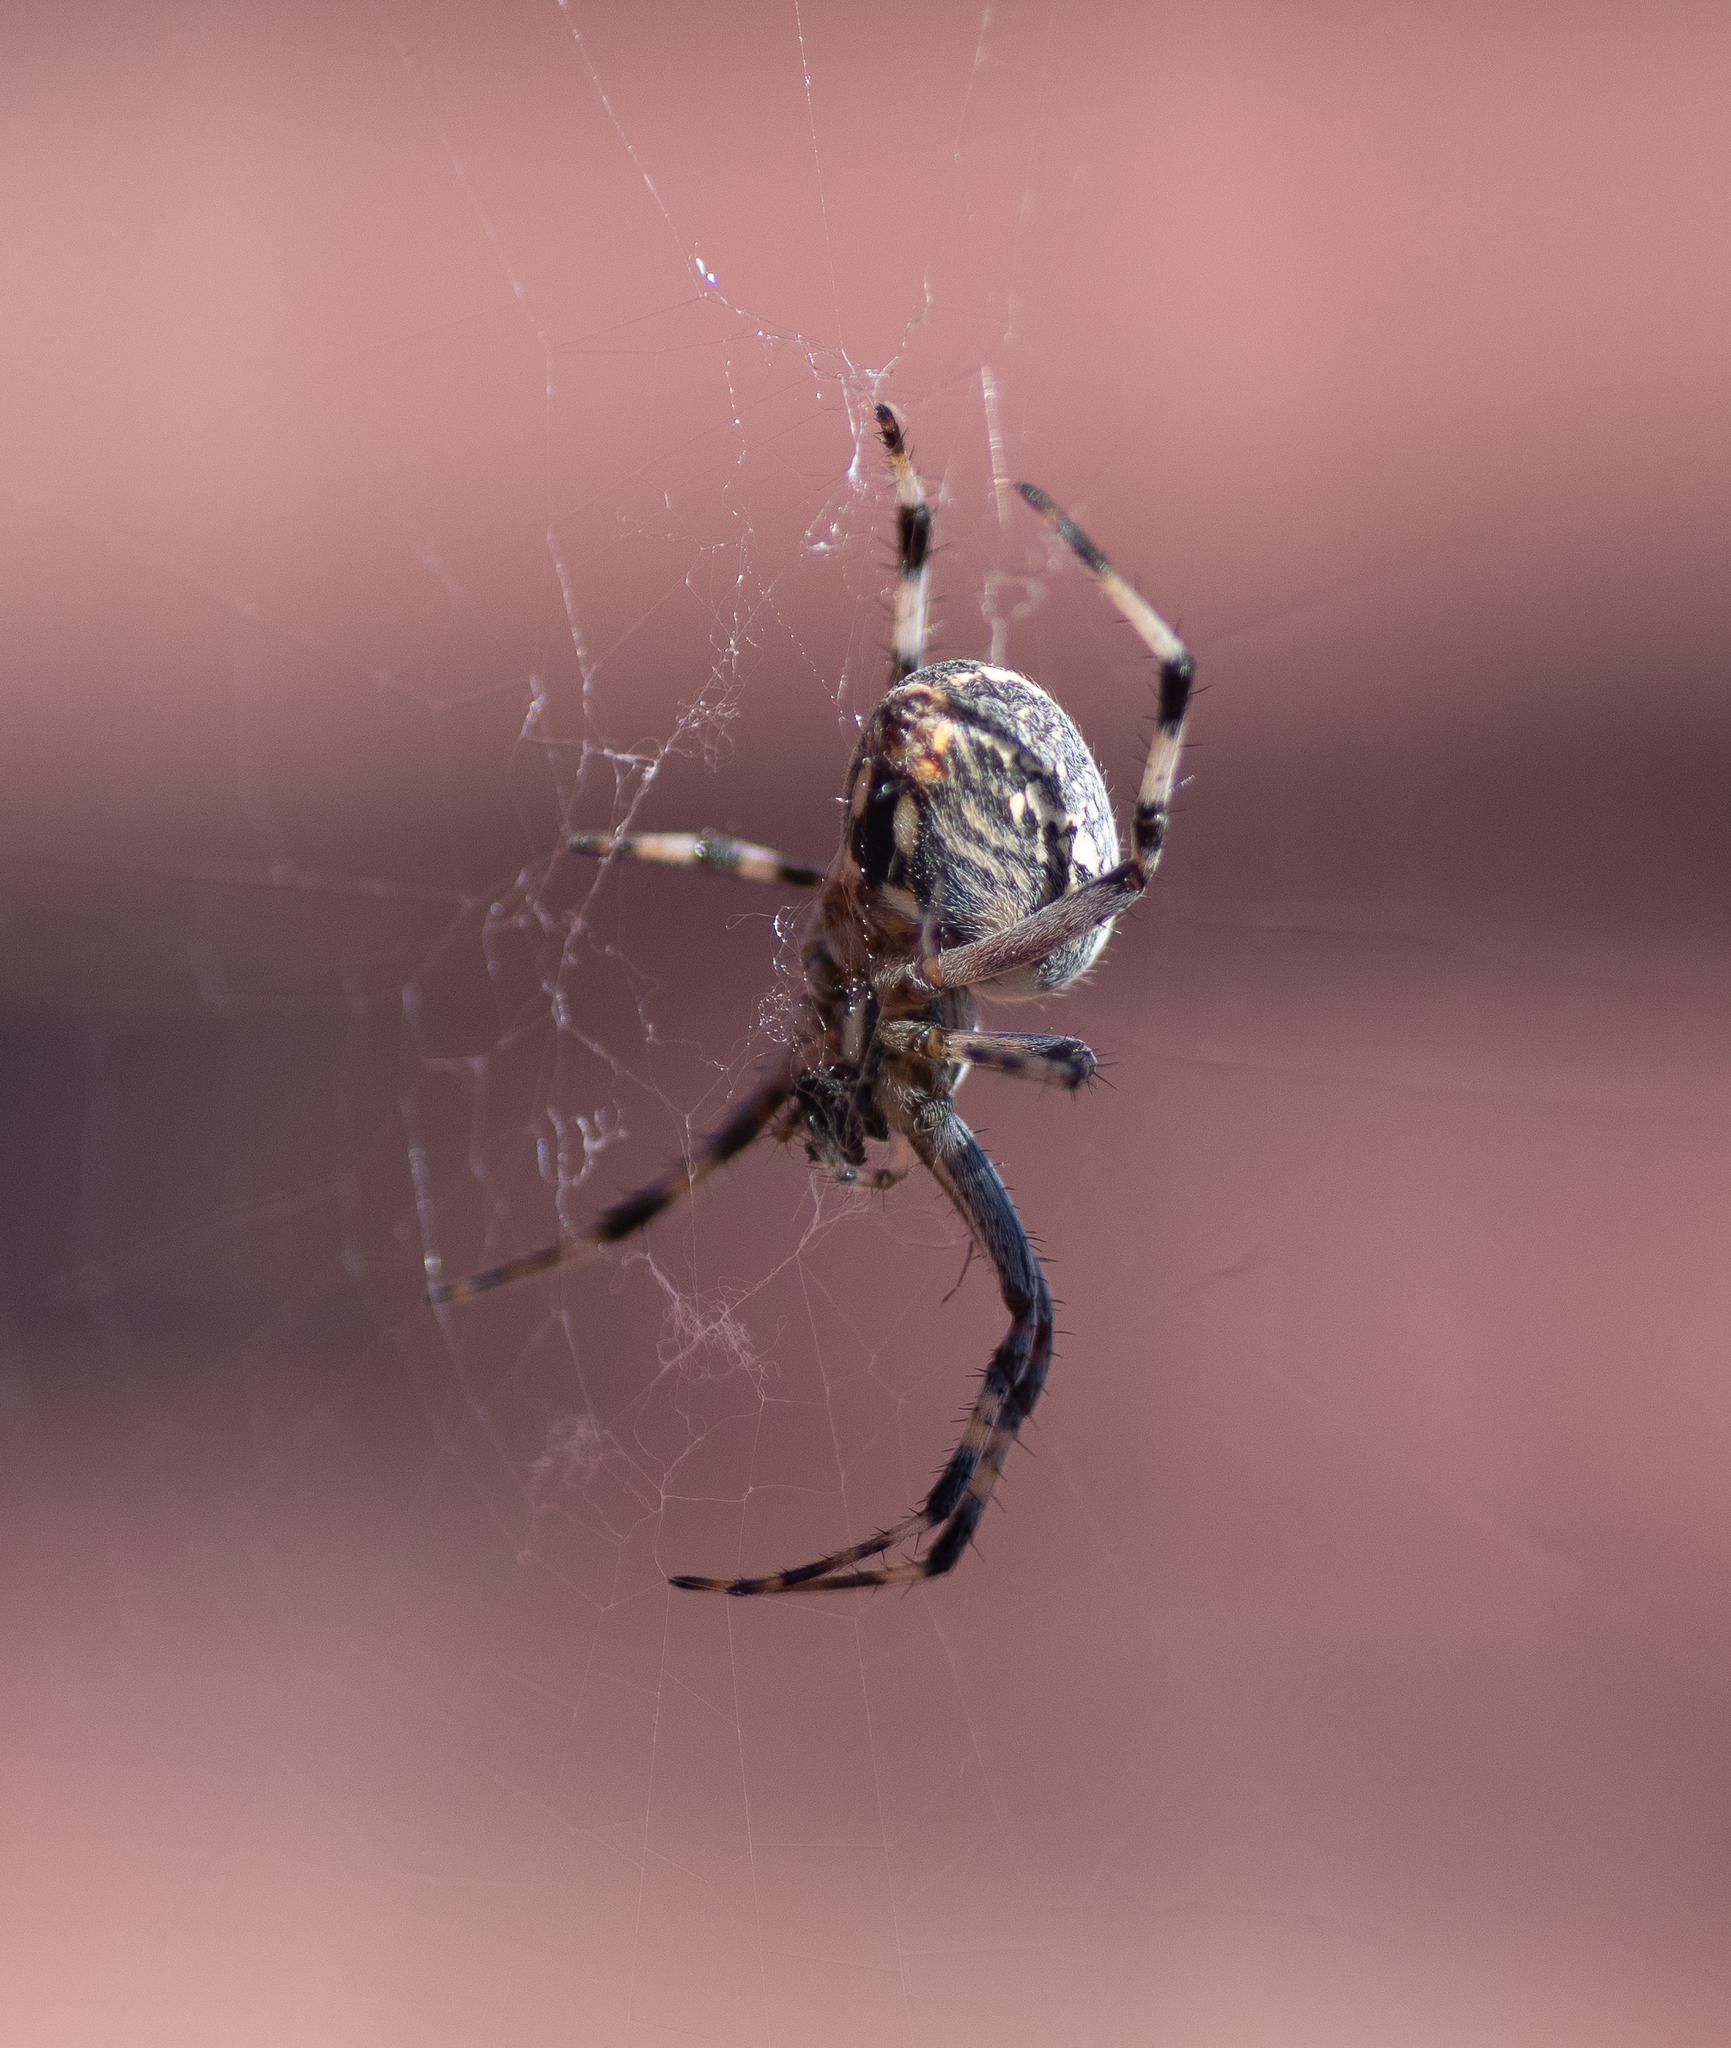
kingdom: Animalia
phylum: Arthropoda
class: Arachnida
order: Araneae
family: Araneidae
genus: Neoscona
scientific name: Neoscona oaxacensis
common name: Orb weavers
